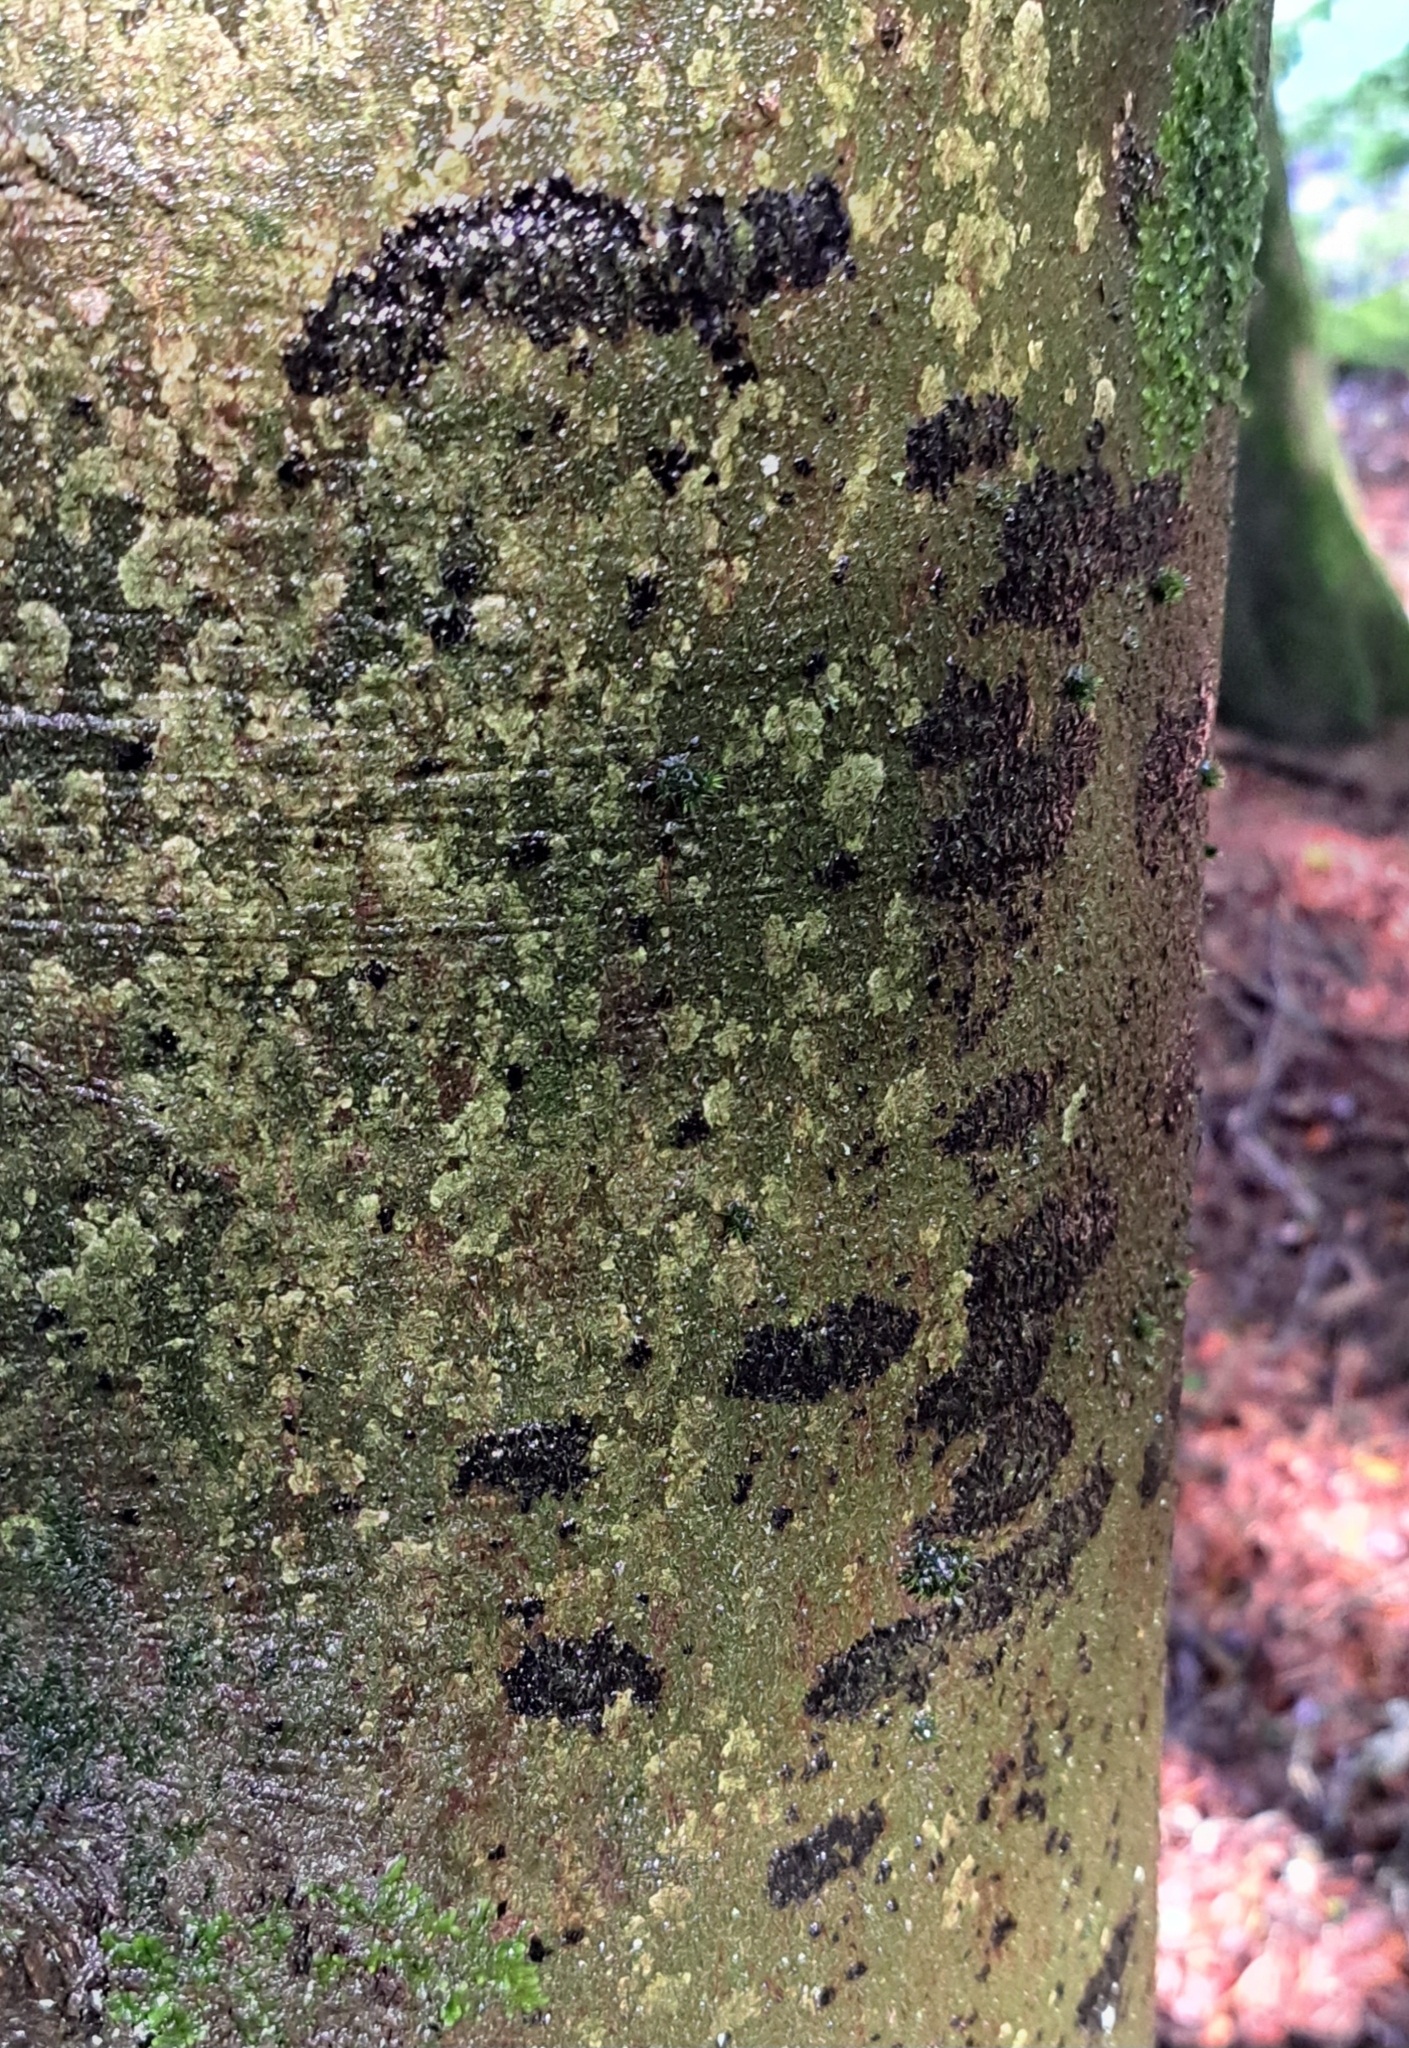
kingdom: Fungi
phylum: Ascomycota
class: Leotiomycetes
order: Rhytismatales
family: Ascodichaenaceae
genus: Ascodichaena
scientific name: Ascodichaena rugosa
